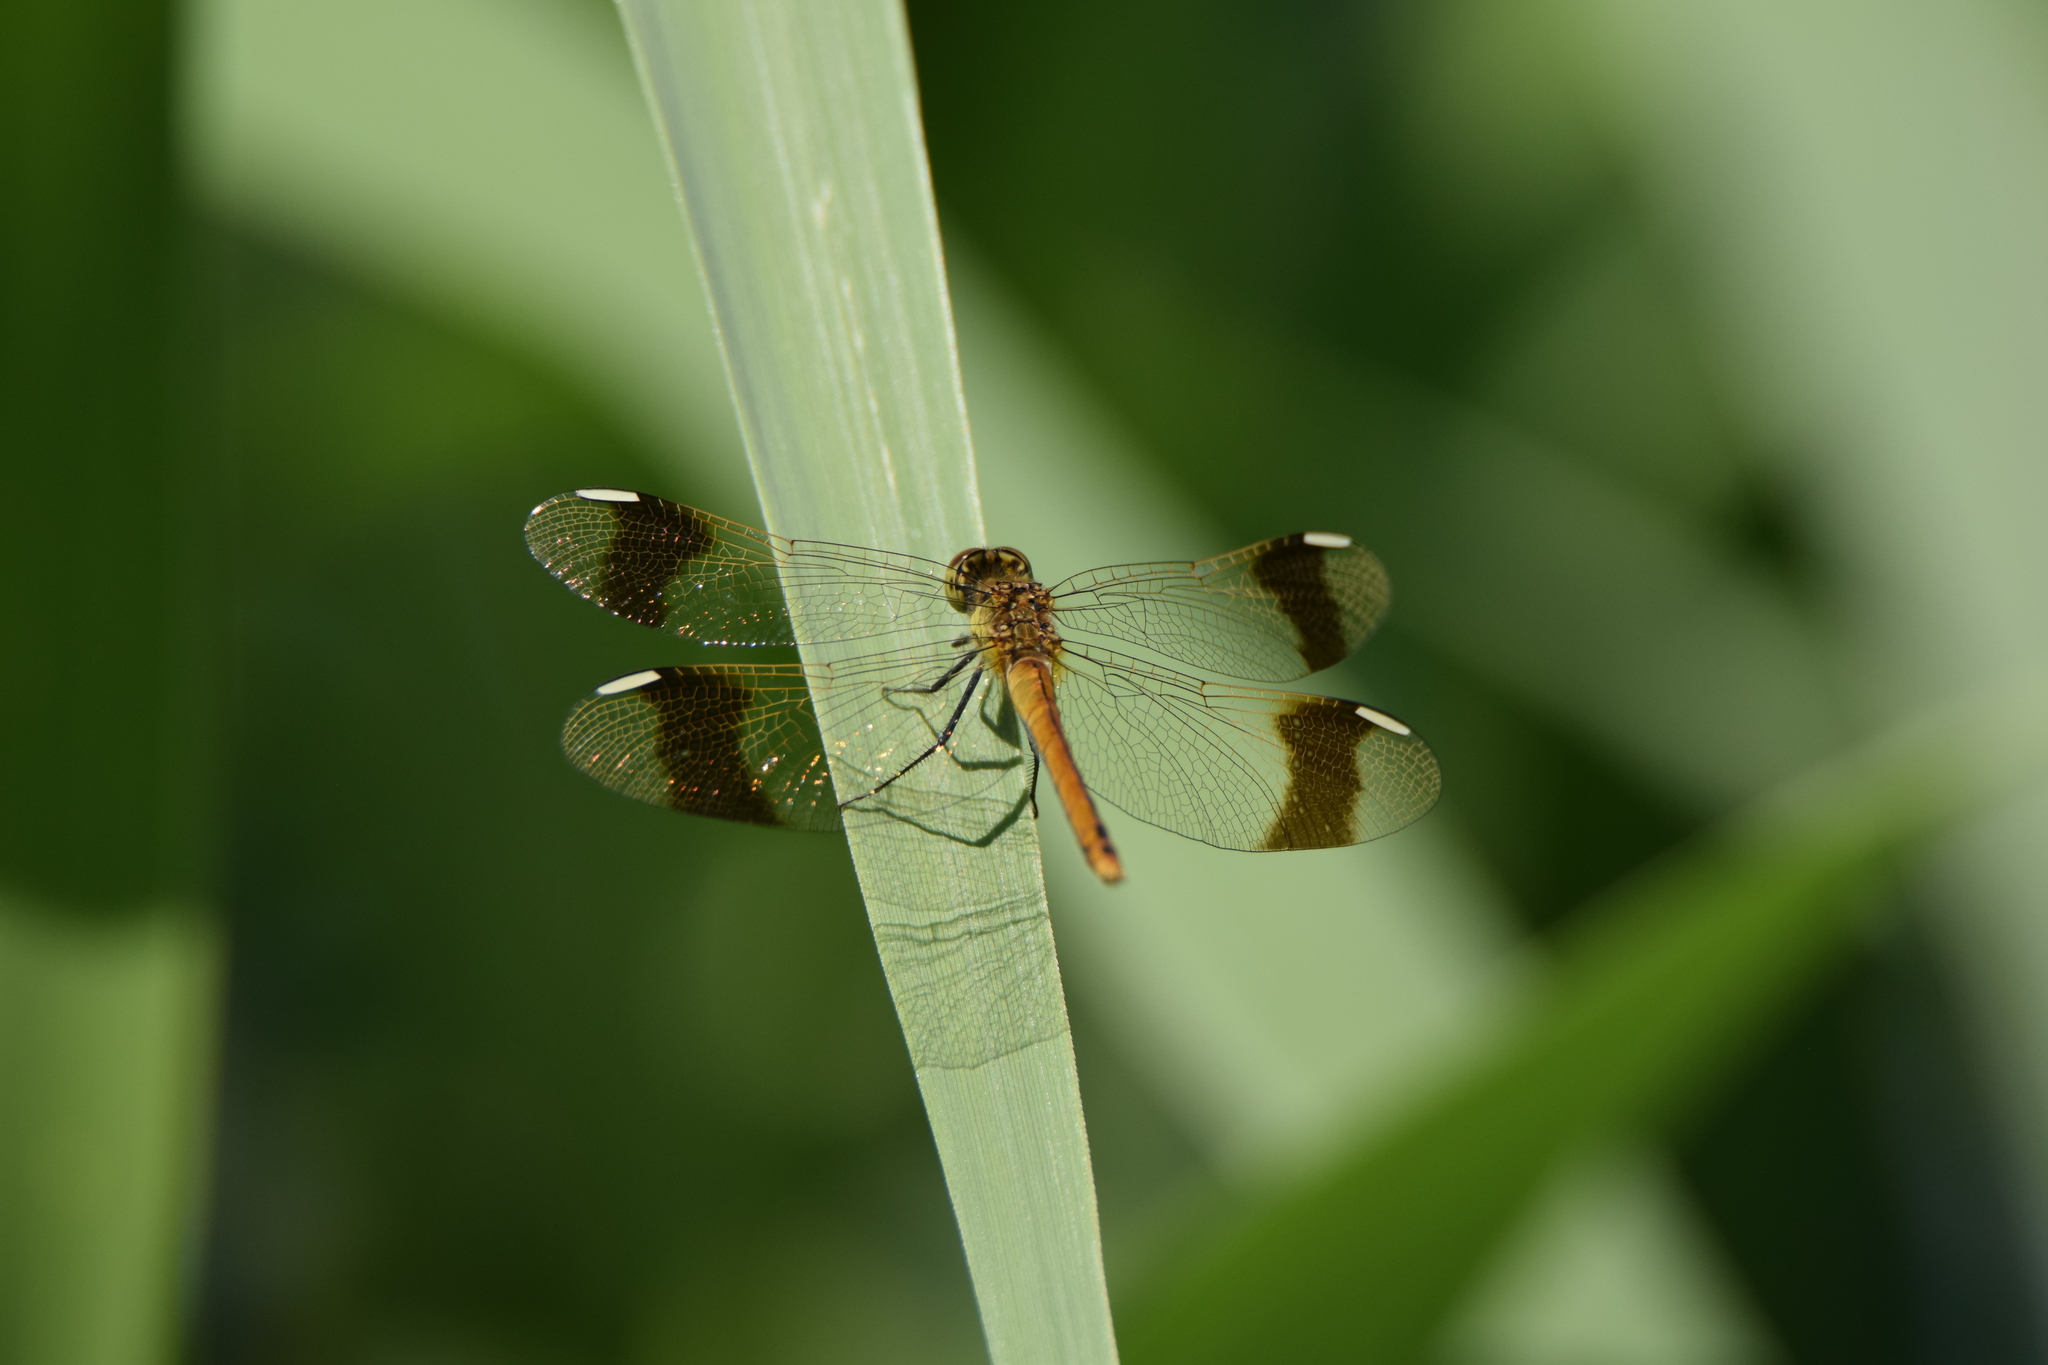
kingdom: Animalia
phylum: Arthropoda
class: Insecta
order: Odonata
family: Libellulidae
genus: Sympetrum
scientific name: Sympetrum pedemontanum
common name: Banded darter
